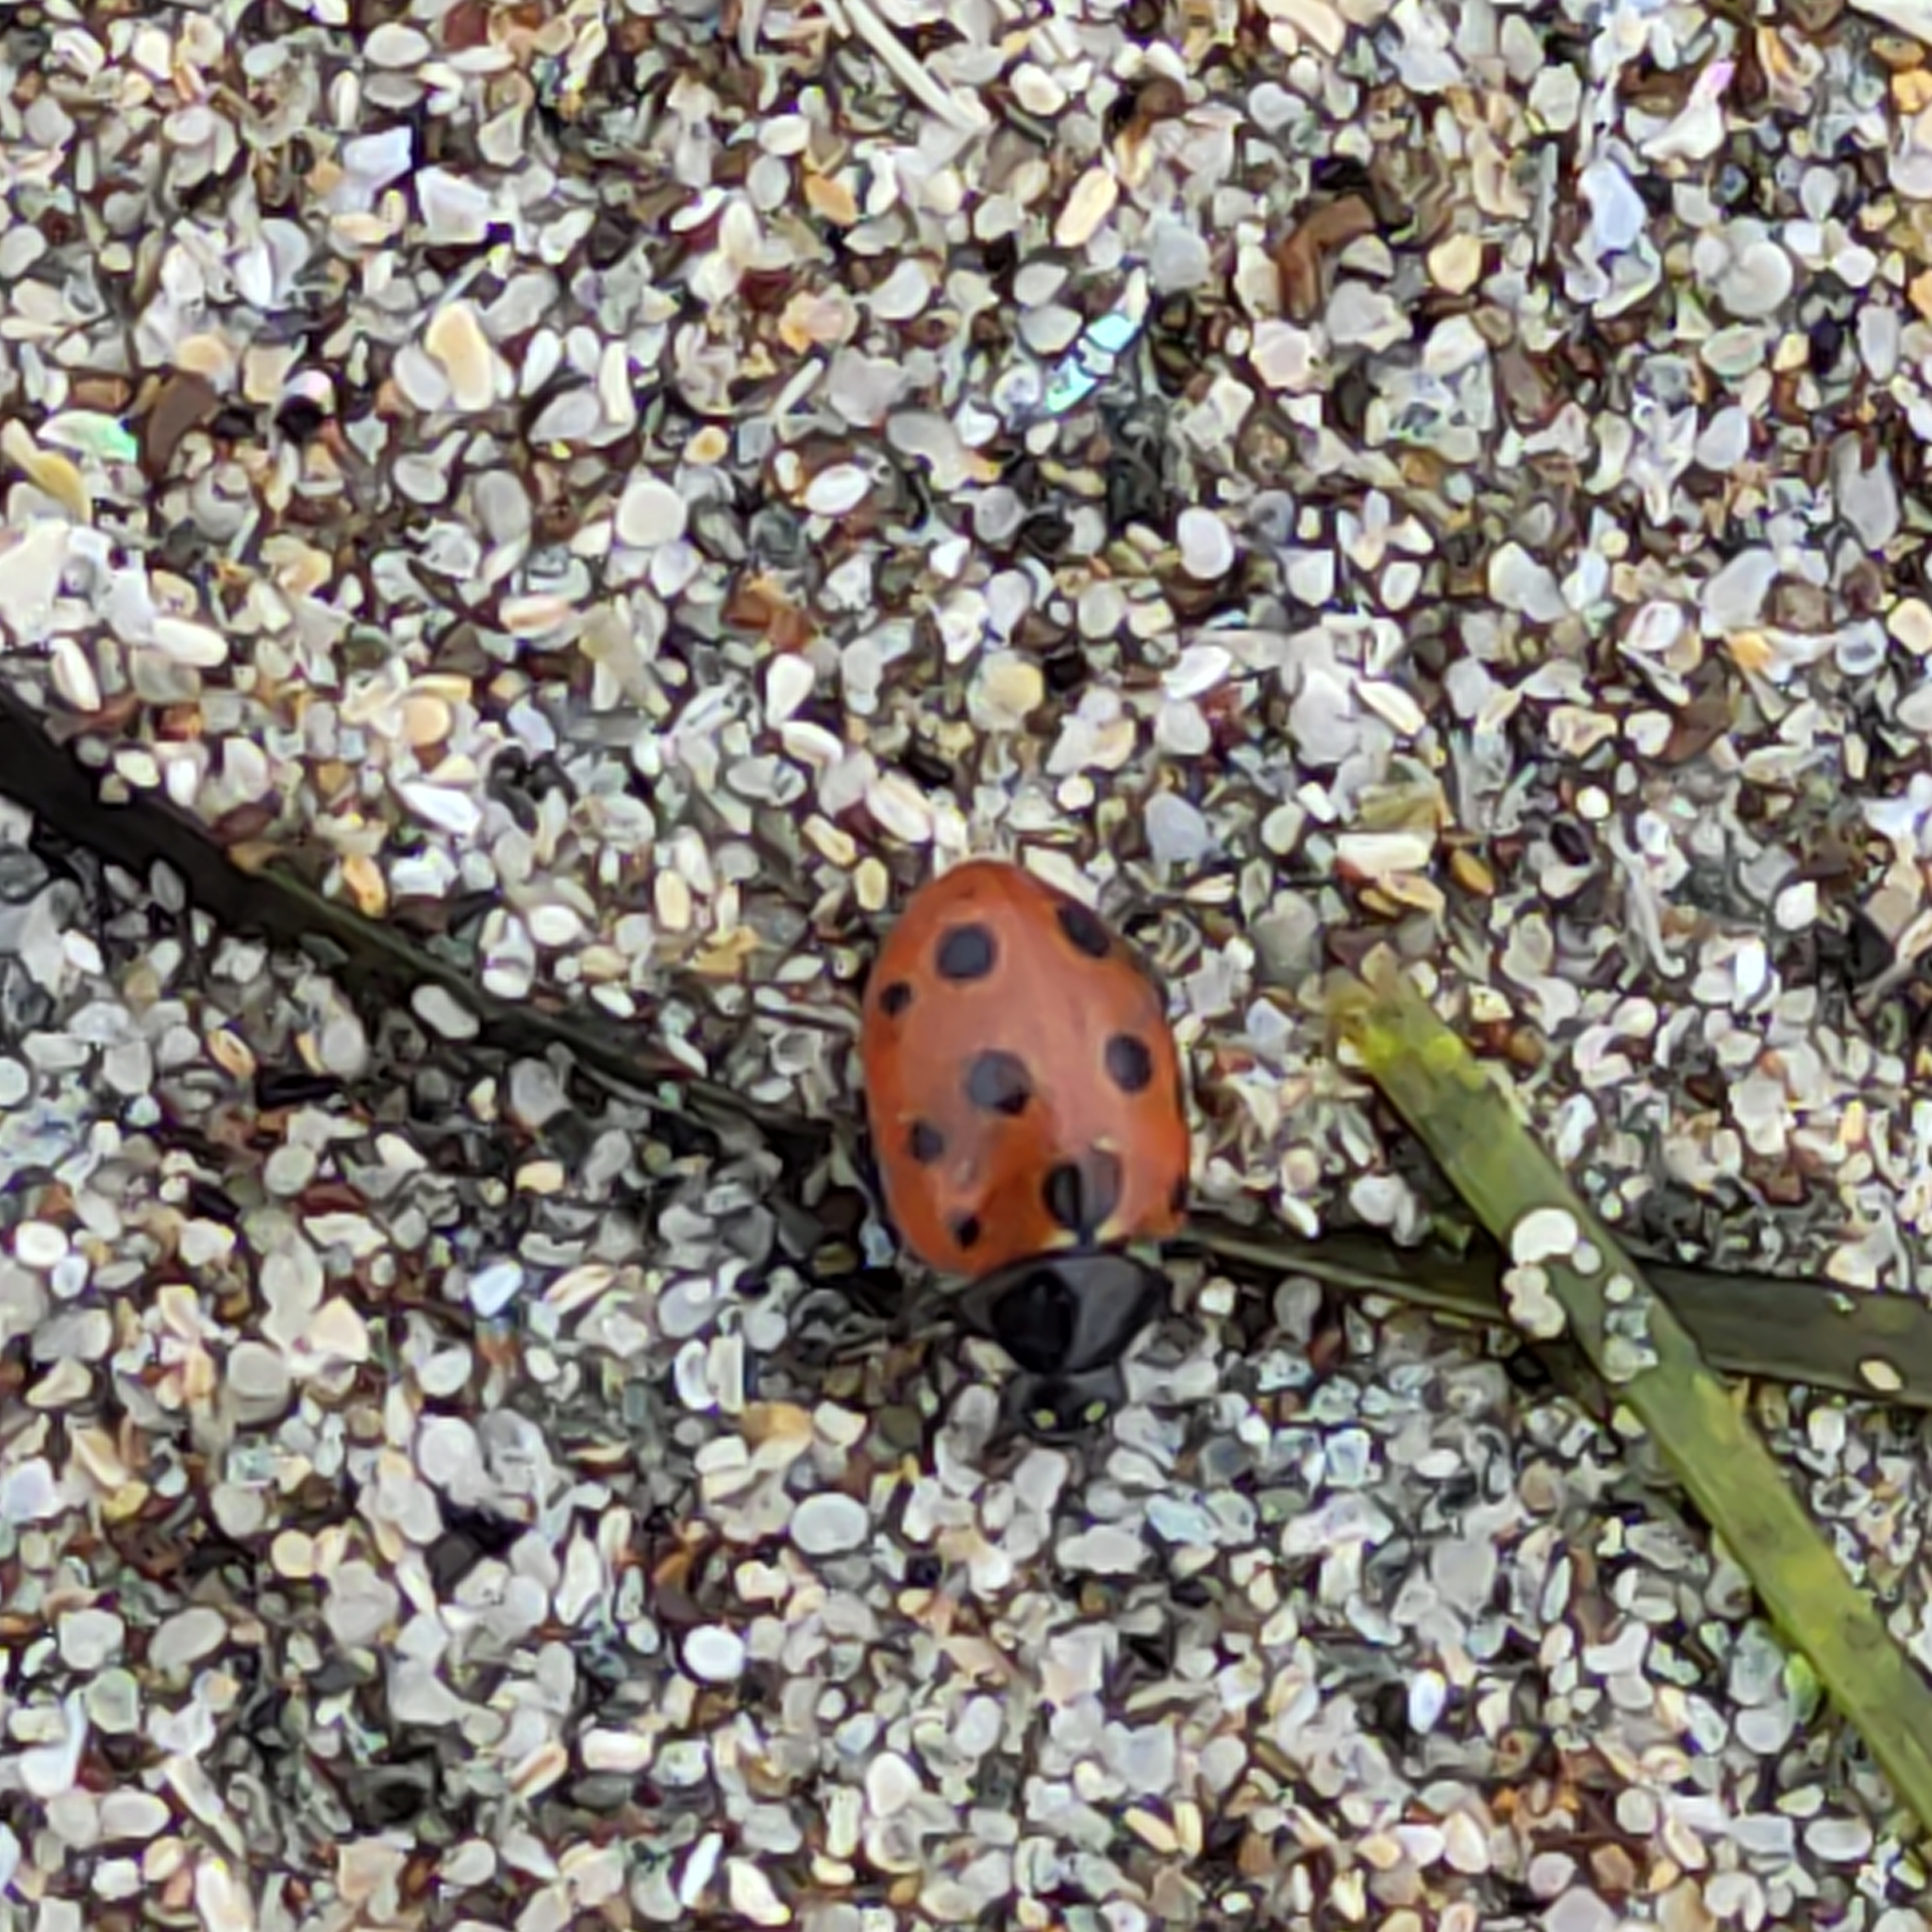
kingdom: Animalia
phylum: Arthropoda
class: Insecta
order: Coleoptera
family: Coccinellidae
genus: Coccinella
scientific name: Coccinella undecimpunctata
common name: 11-spot ladybird
